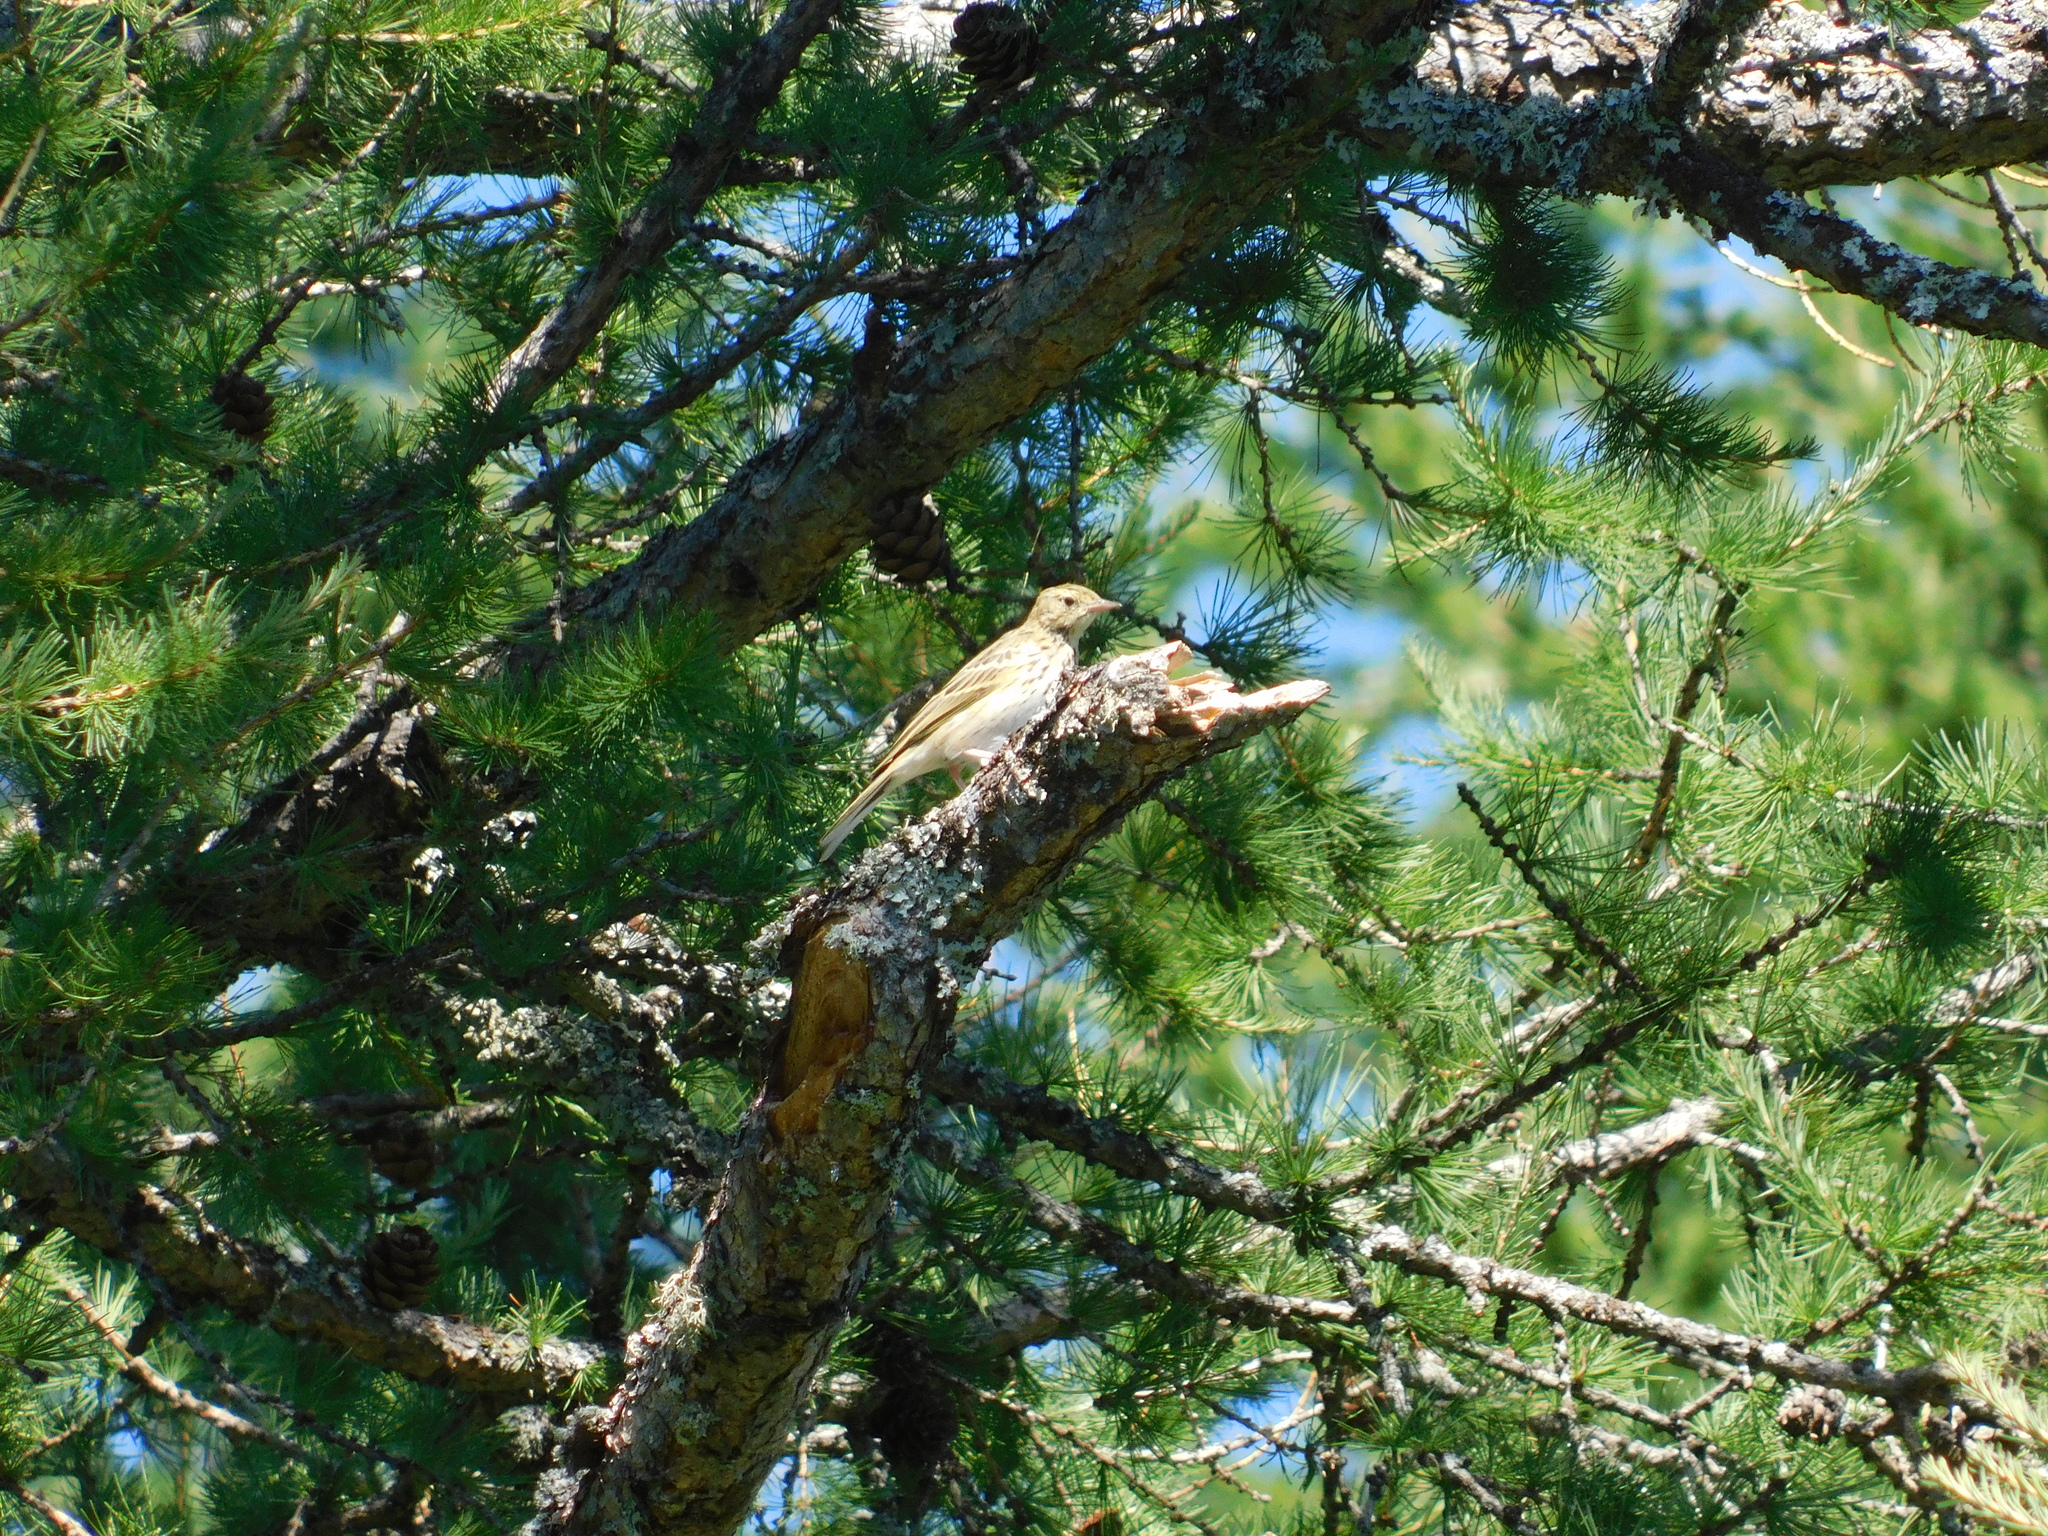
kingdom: Animalia
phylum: Chordata
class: Aves
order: Passeriformes
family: Motacillidae
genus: Anthus
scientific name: Anthus trivialis
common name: Tree pipit
